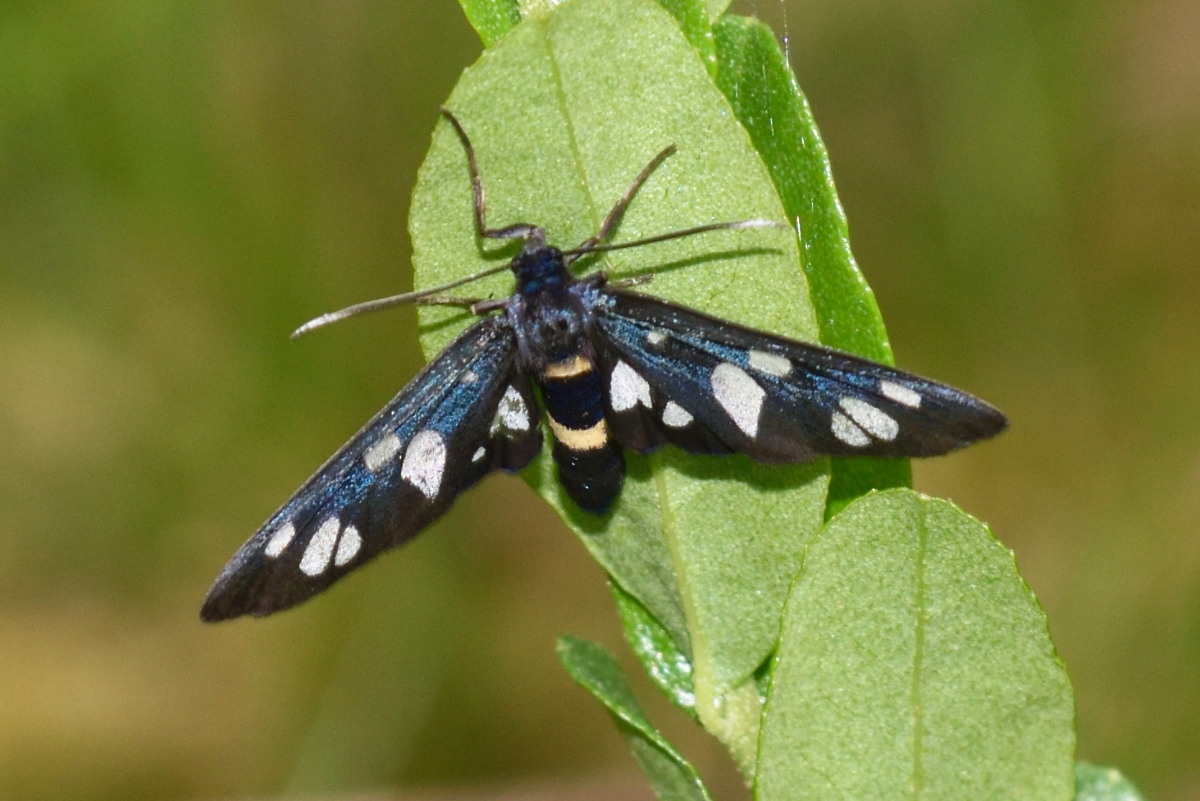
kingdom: Animalia
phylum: Arthropoda
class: Insecta
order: Lepidoptera
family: Erebidae
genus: Amata
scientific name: Amata nigricornis
